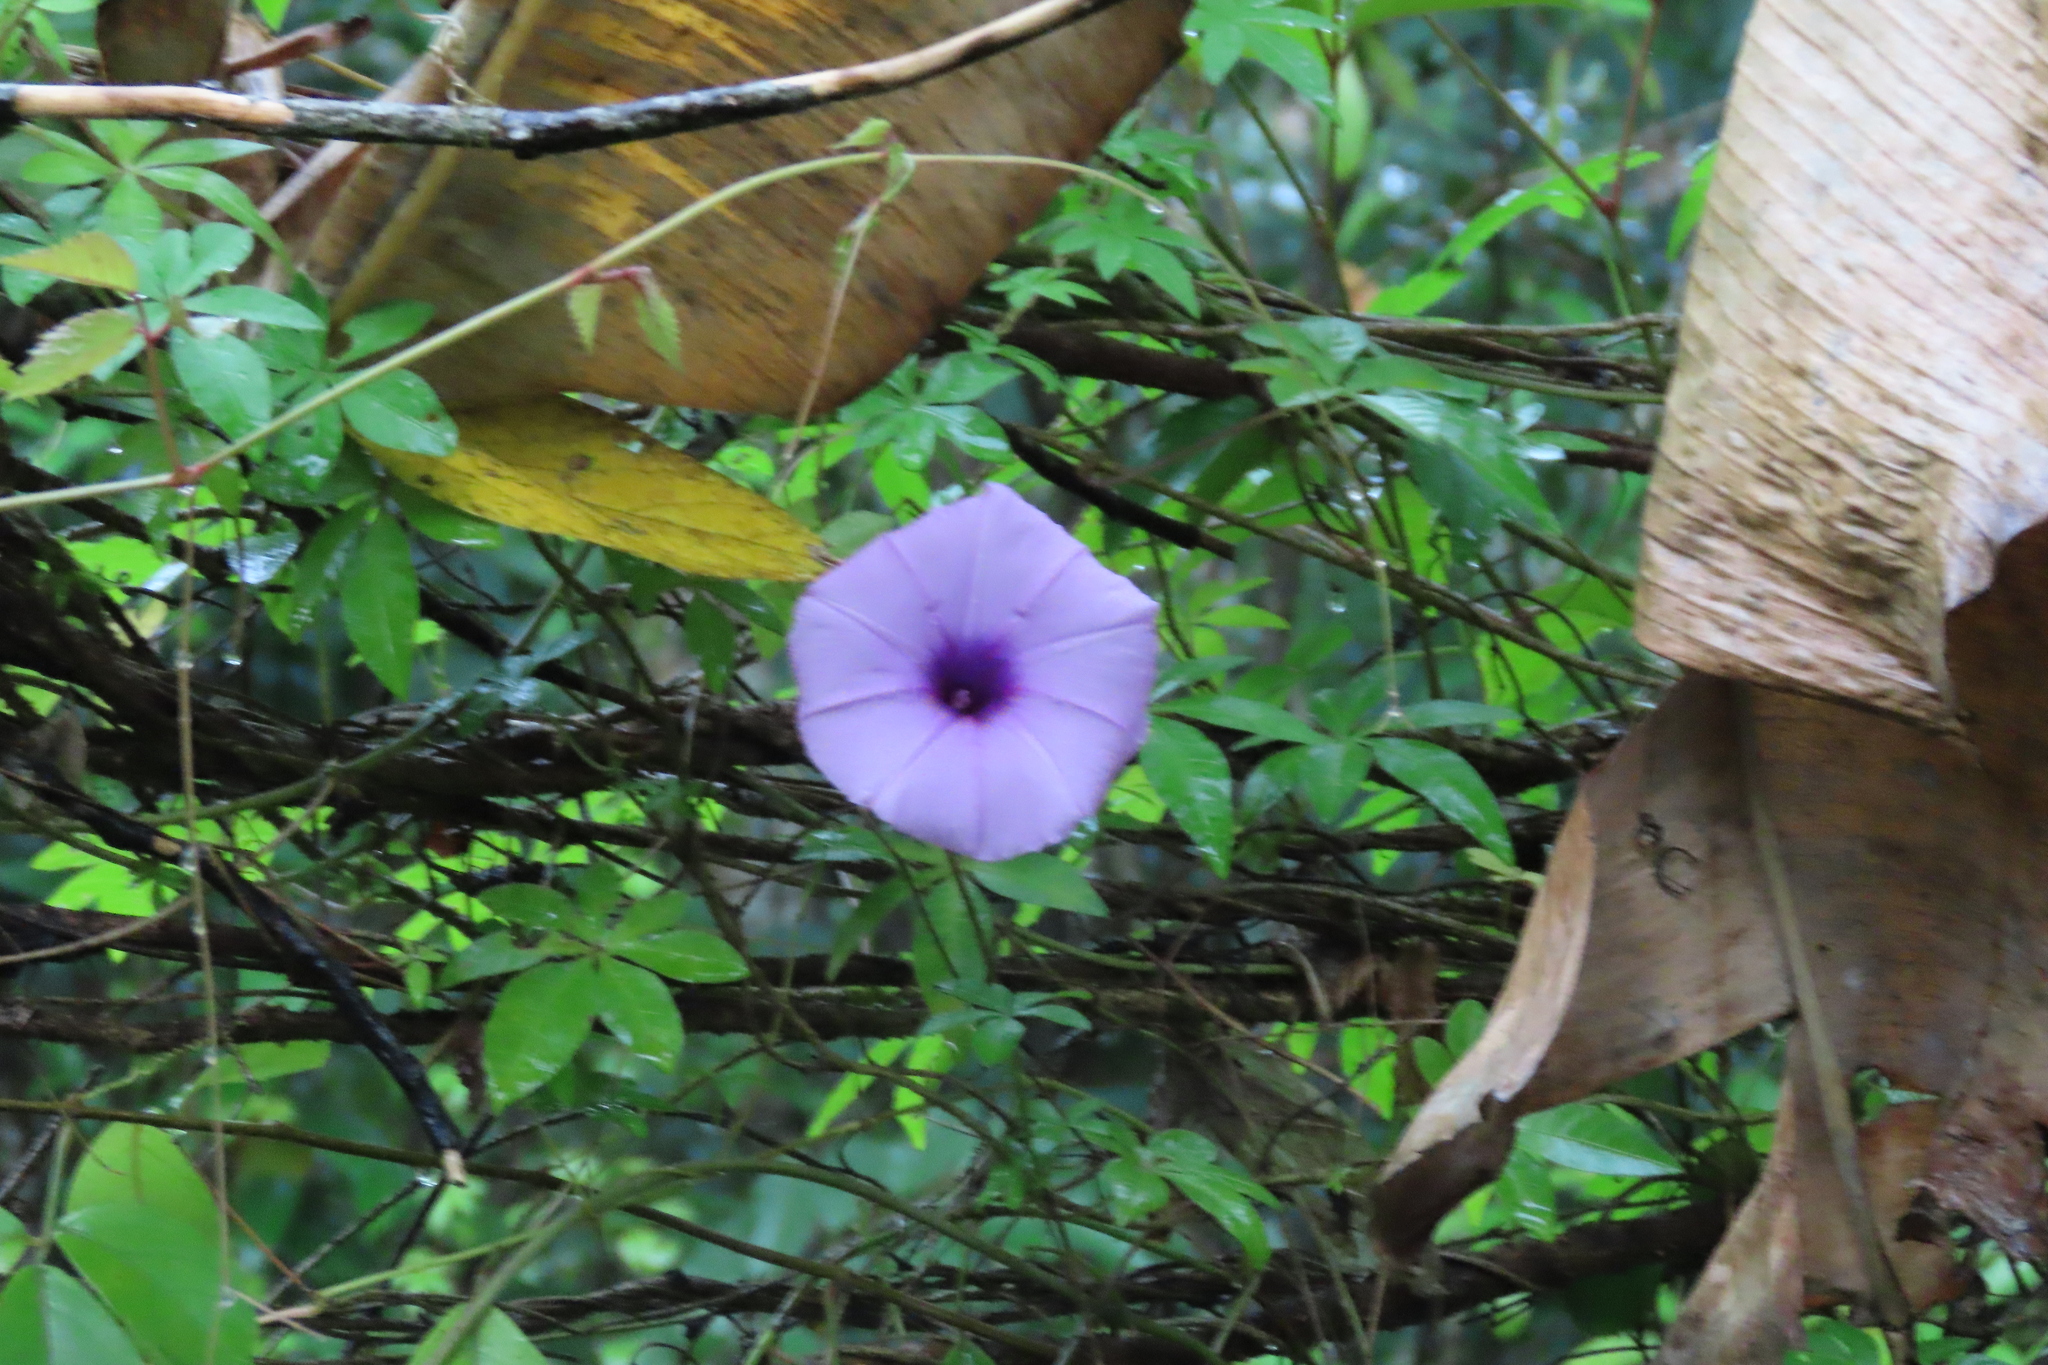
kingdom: Plantae
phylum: Tracheophyta
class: Magnoliopsida
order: Solanales
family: Convolvulaceae
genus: Ipomoea
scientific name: Ipomoea cairica
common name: Mile a minute vine
